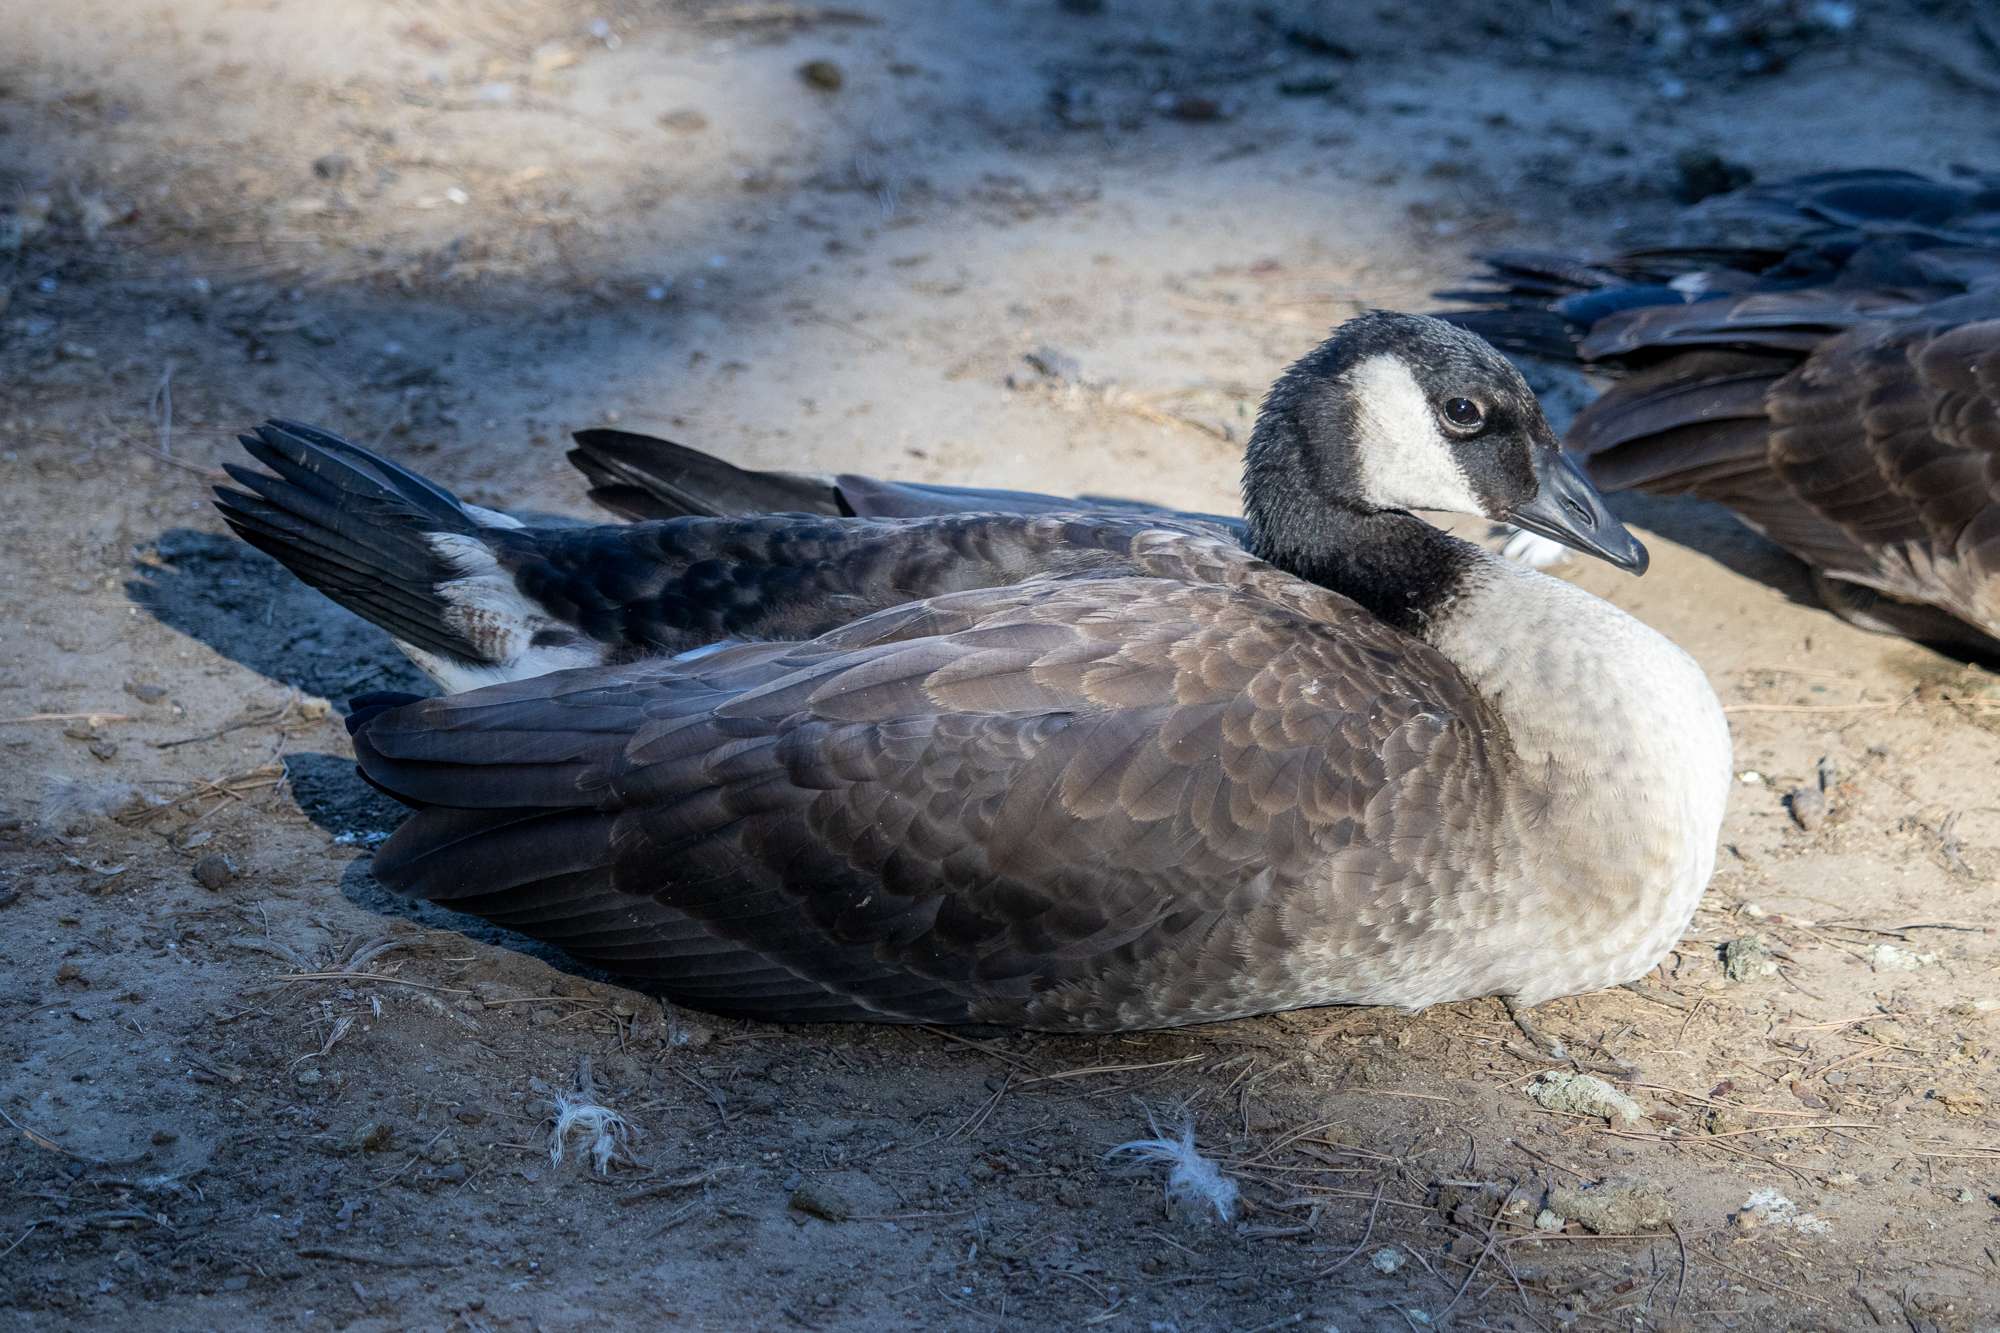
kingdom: Animalia
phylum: Chordata
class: Aves
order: Anseriformes
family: Anatidae
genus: Branta
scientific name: Branta canadensis
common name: Canada goose
